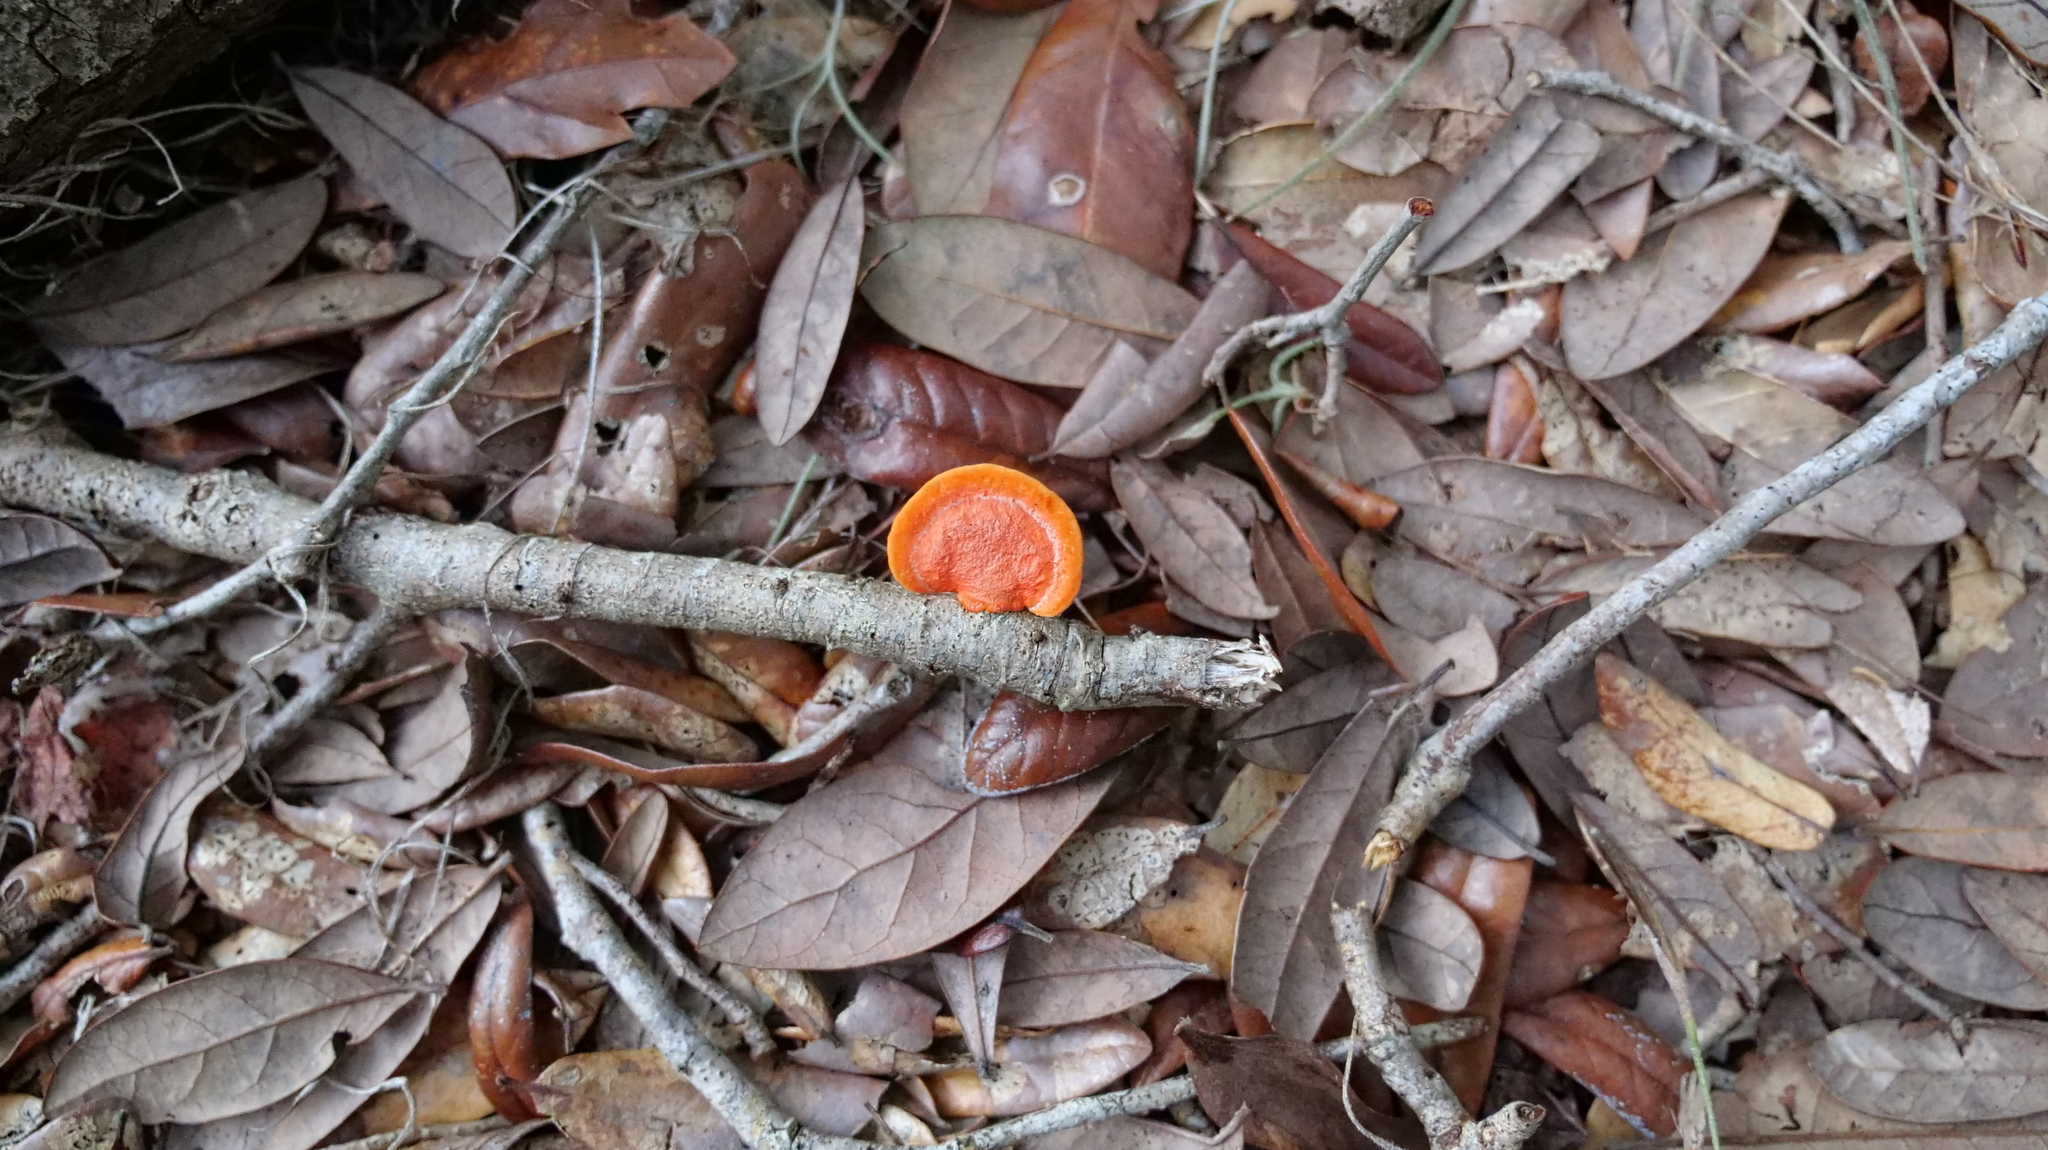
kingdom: Fungi
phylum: Basidiomycota
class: Agaricomycetes
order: Polyporales
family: Polyporaceae
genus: Trametes
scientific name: Trametes coccinea
